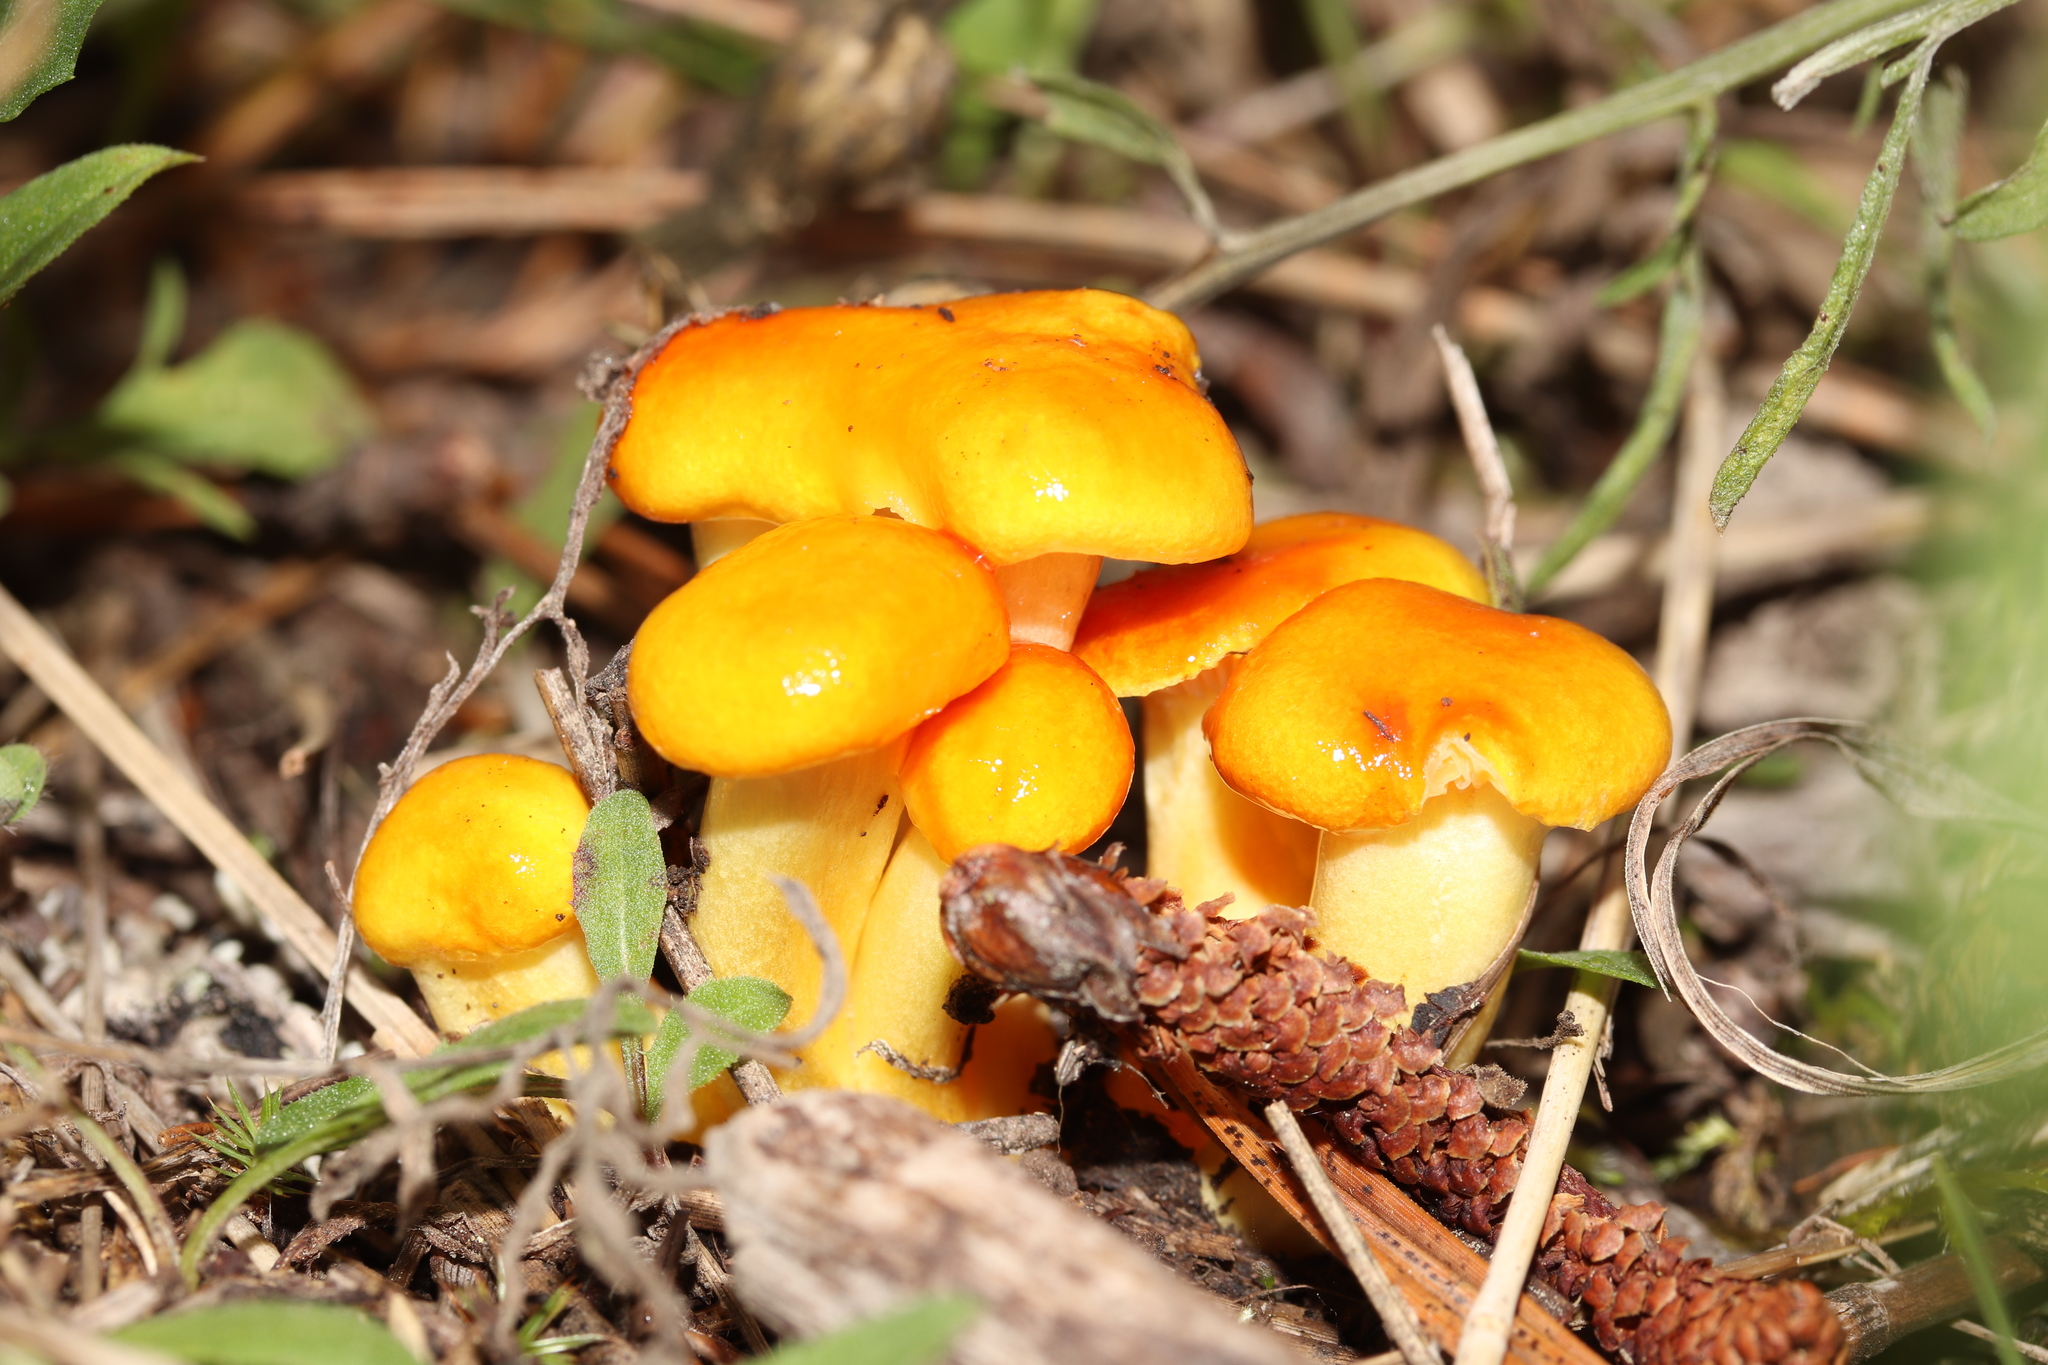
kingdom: Fungi
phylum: Basidiomycota
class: Agaricomycetes
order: Agaricales
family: Hygrophoraceae
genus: Hygrophorus
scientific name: Hygrophorus speciosus
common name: Splendid woodwax
